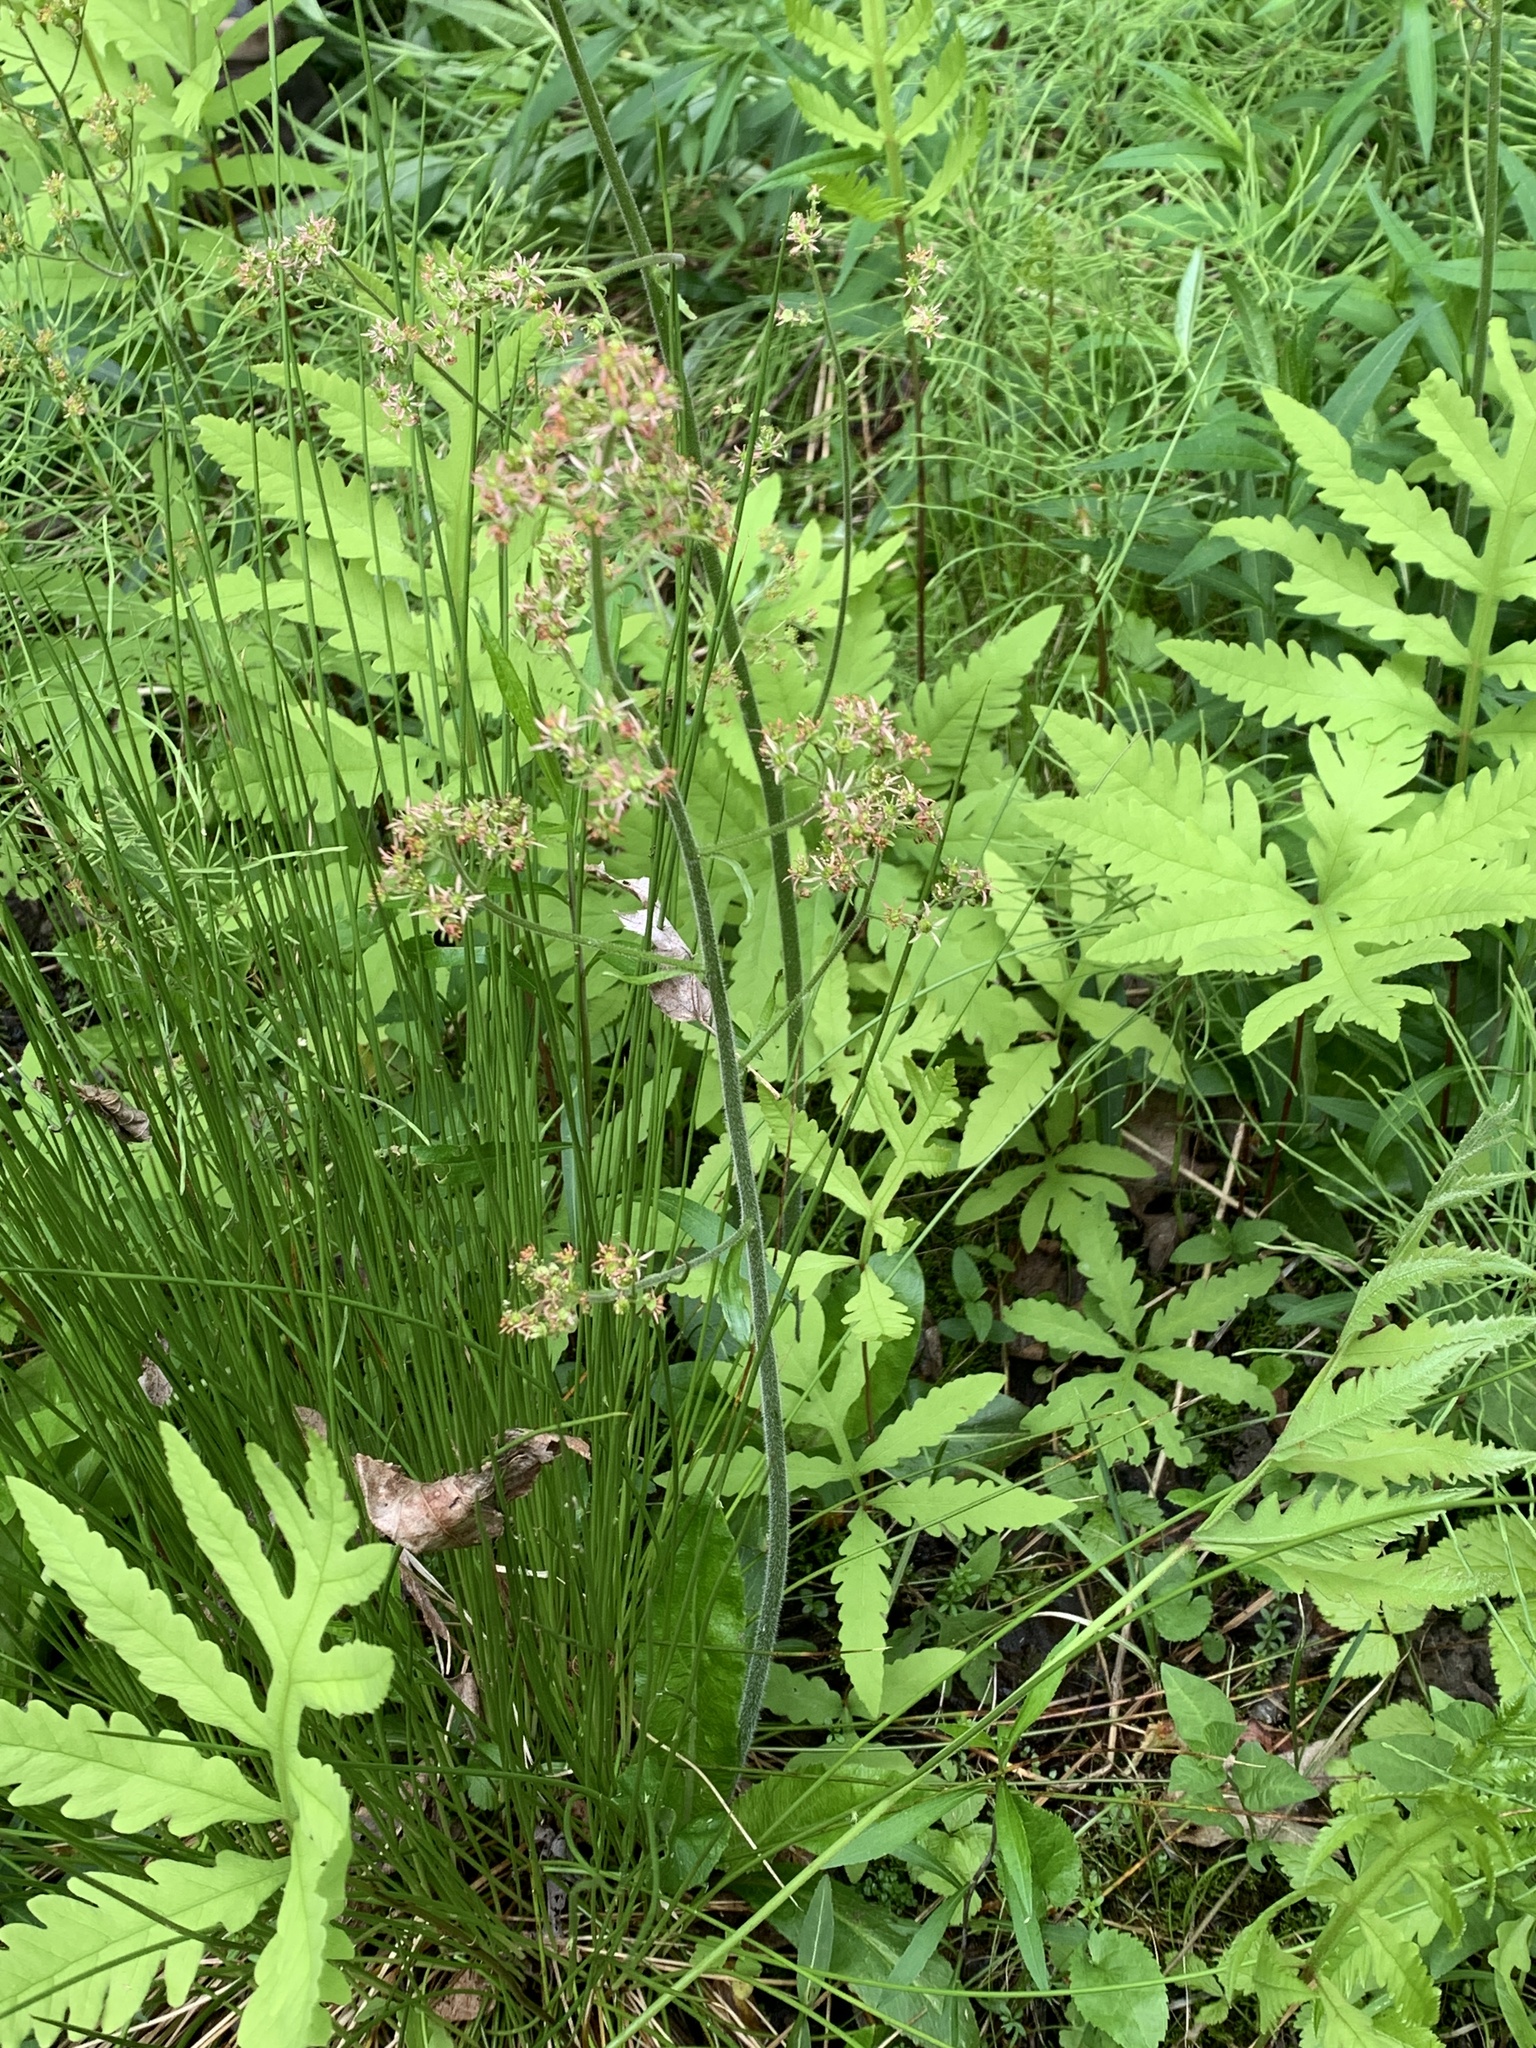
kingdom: Plantae
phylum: Tracheophyta
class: Polypodiopsida
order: Polypodiales
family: Onocleaceae
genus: Onoclea
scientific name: Onoclea sensibilis
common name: Sensitive fern
